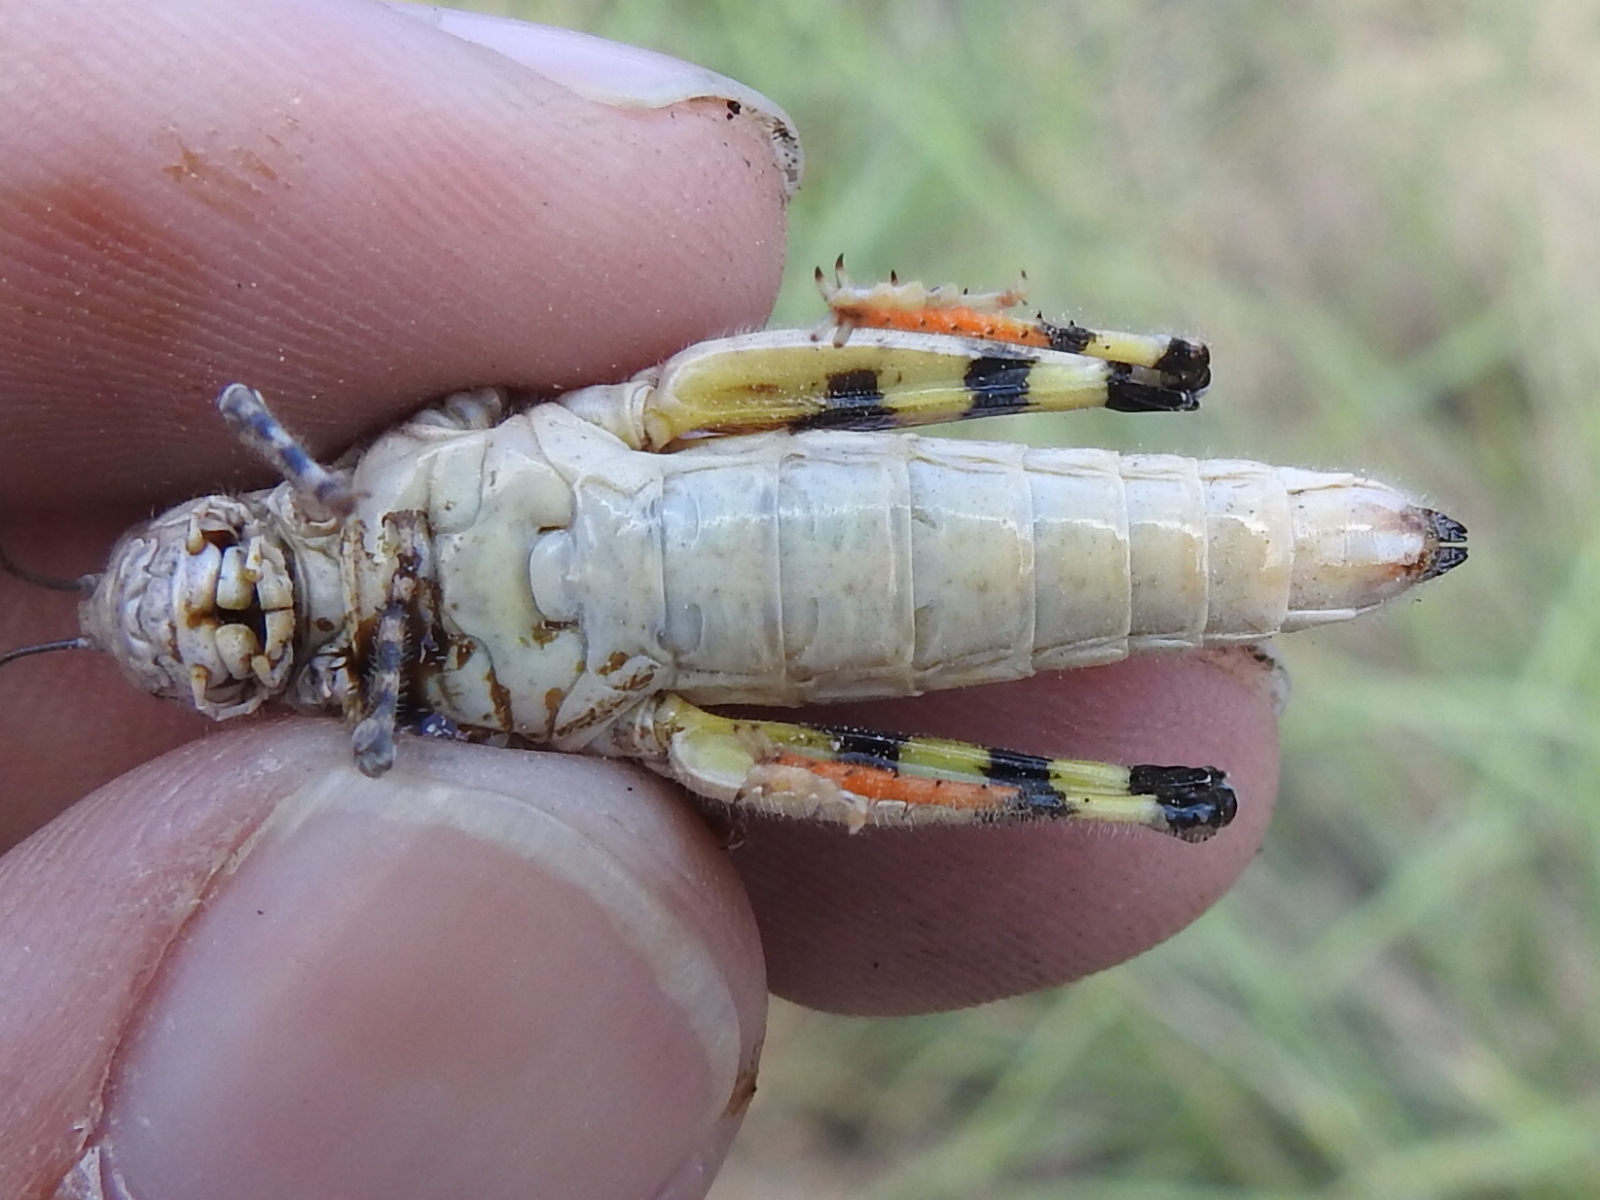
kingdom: Animalia
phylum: Arthropoda
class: Insecta
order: Orthoptera
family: Acrididae
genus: Heliastus
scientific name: Heliastus benjamini
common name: Arroyo grasshopper
